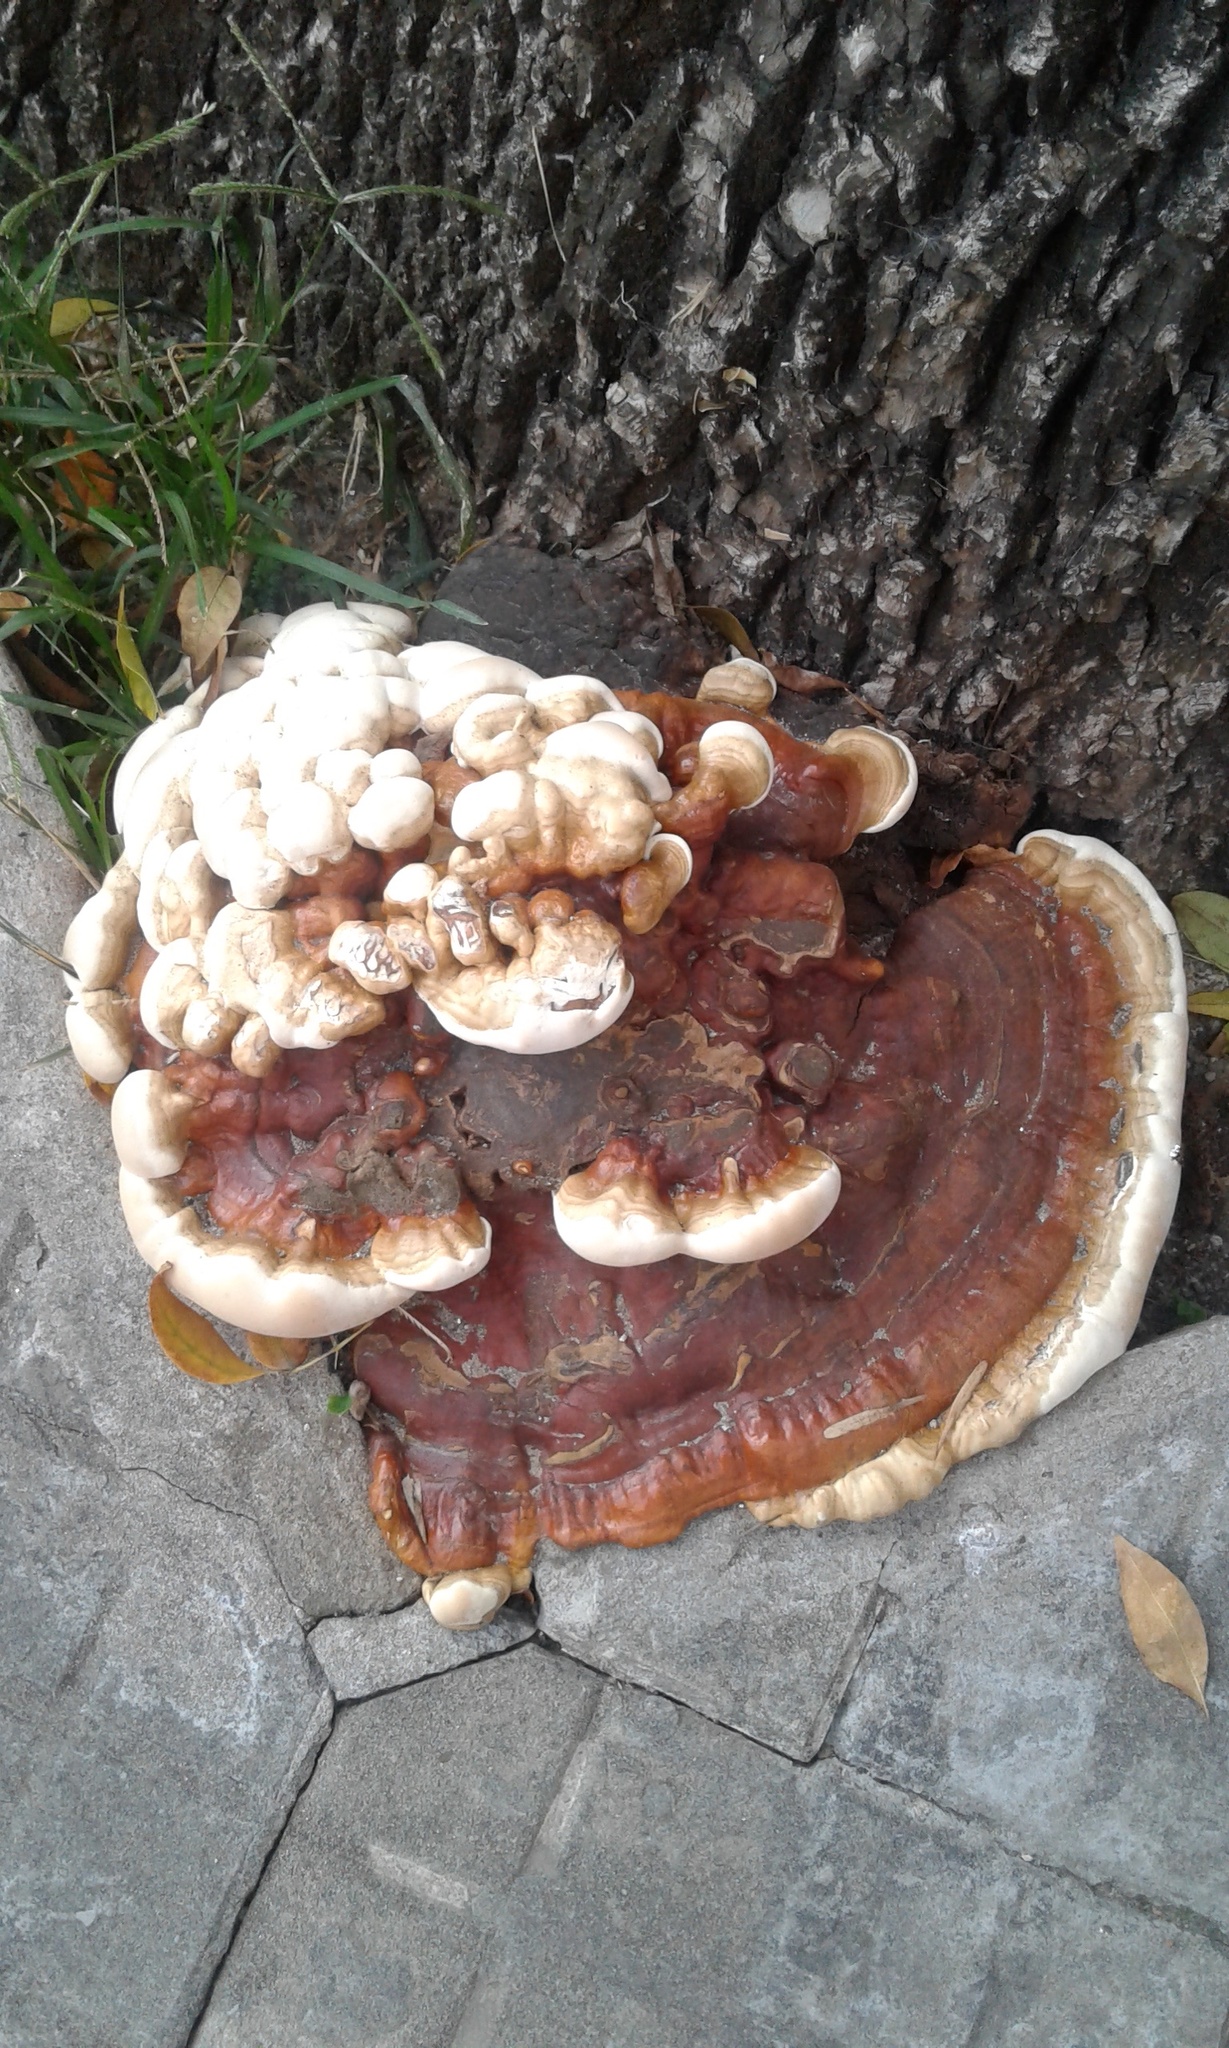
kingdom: Fungi
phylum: Basidiomycota
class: Agaricomycetes
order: Polyporales
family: Polyporaceae
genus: Ganoderma
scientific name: Ganoderma resinaceum
